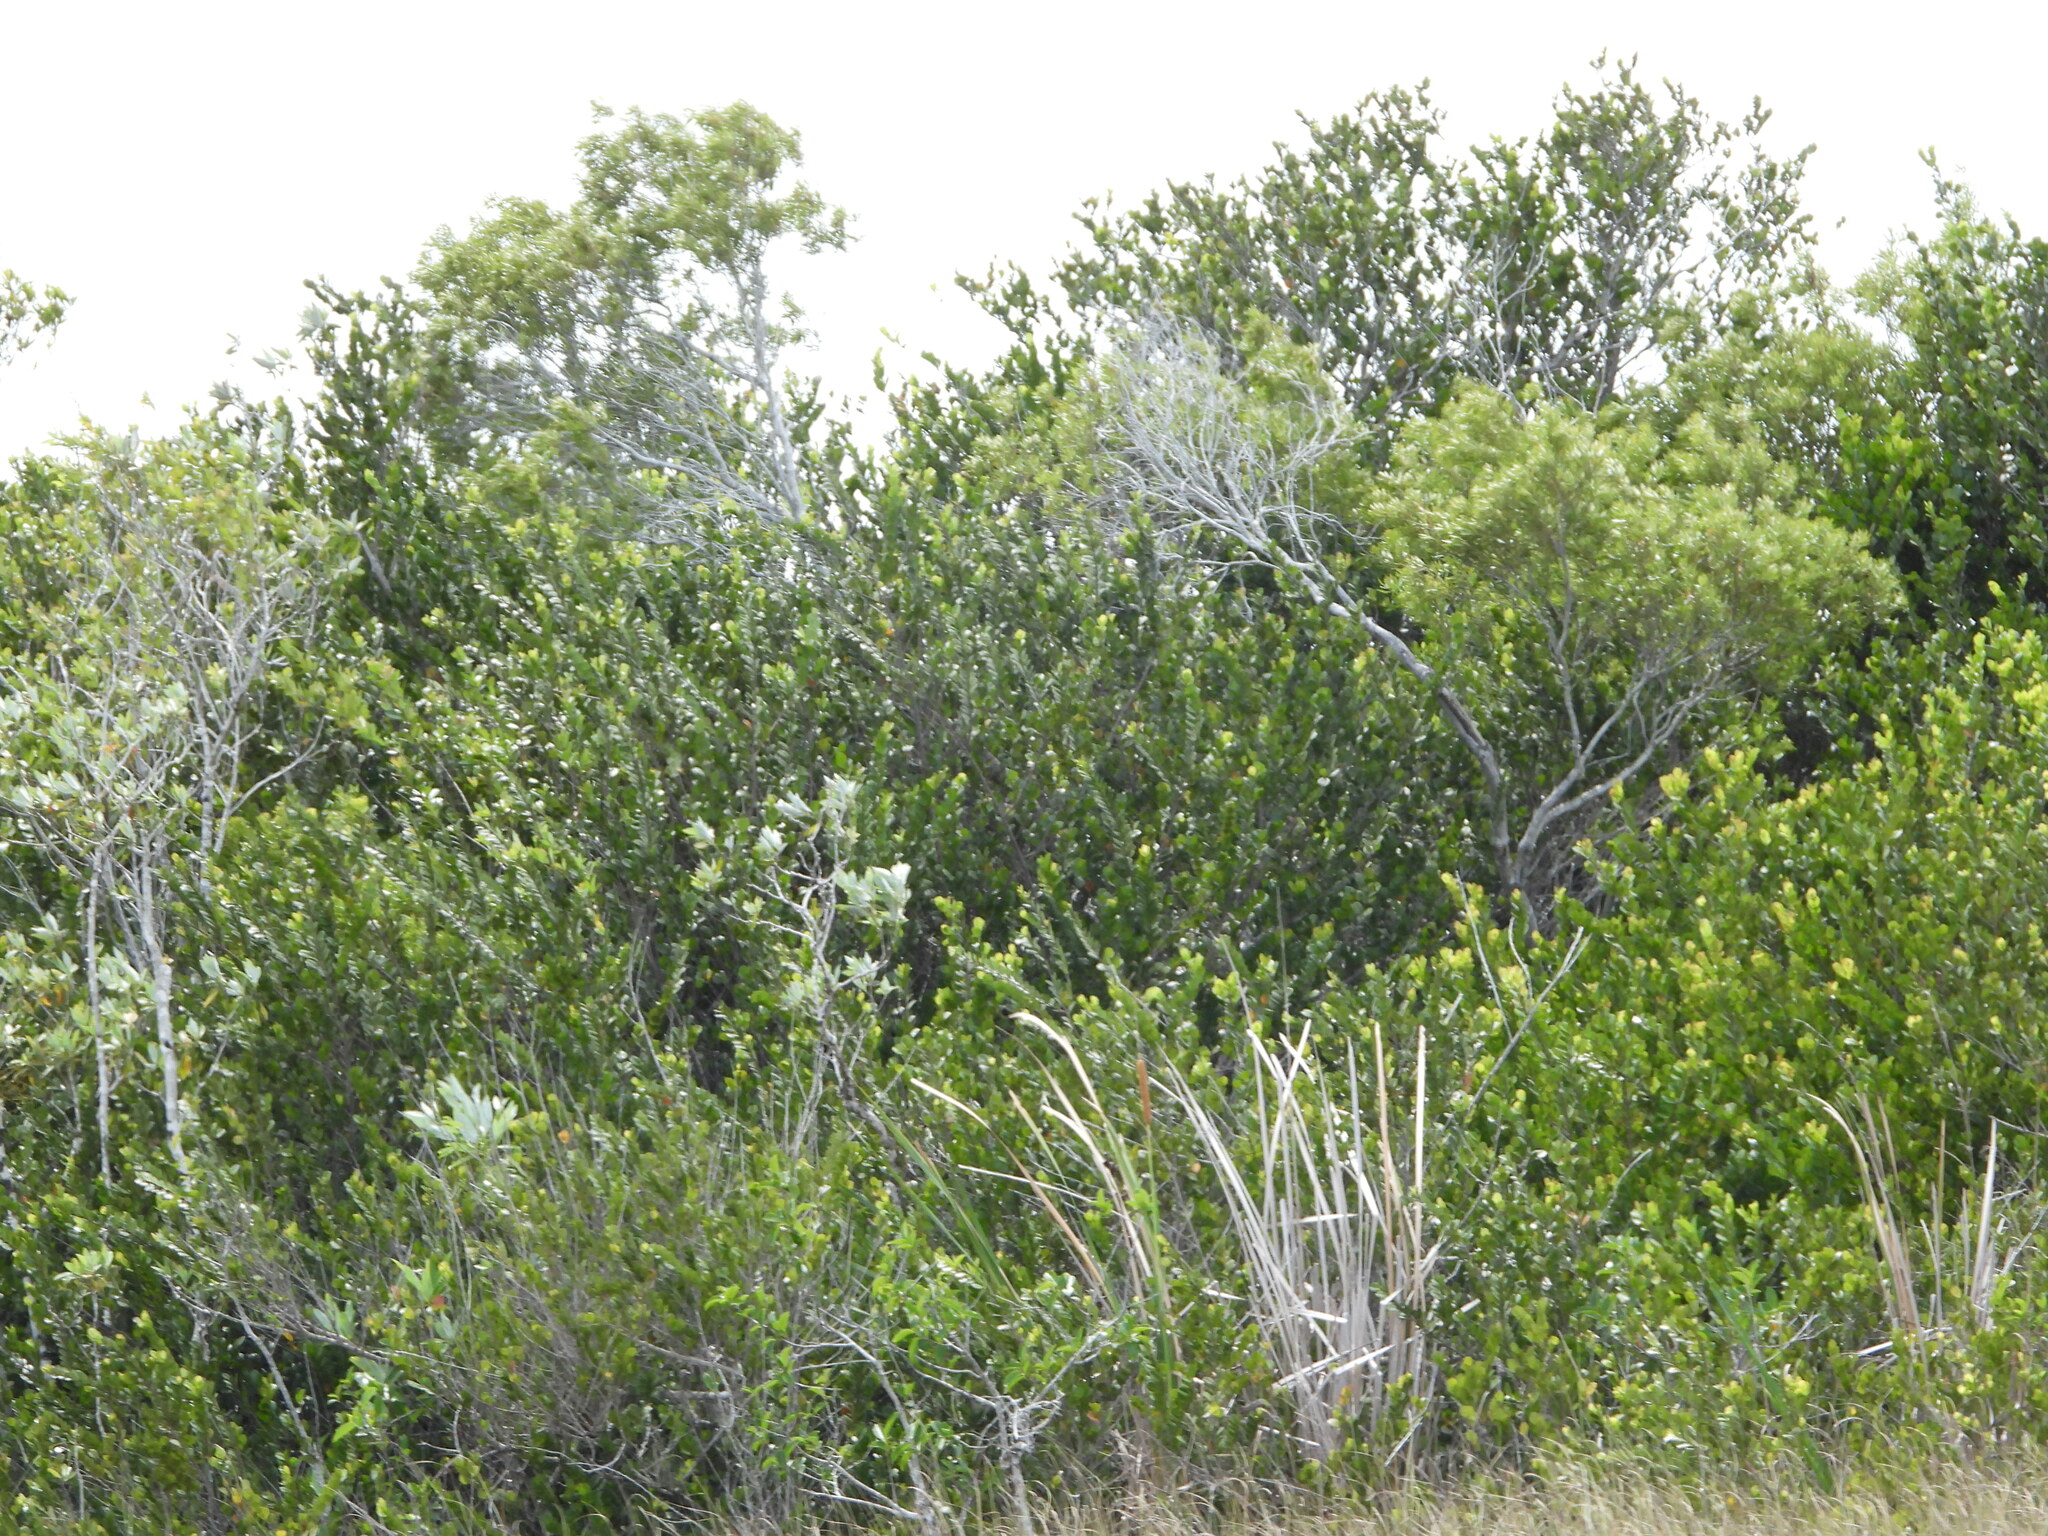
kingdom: Plantae
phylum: Tracheophyta
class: Magnoliopsida
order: Malpighiales
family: Chrysobalanaceae
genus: Chrysobalanus
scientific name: Chrysobalanus icaco
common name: Coco plum
